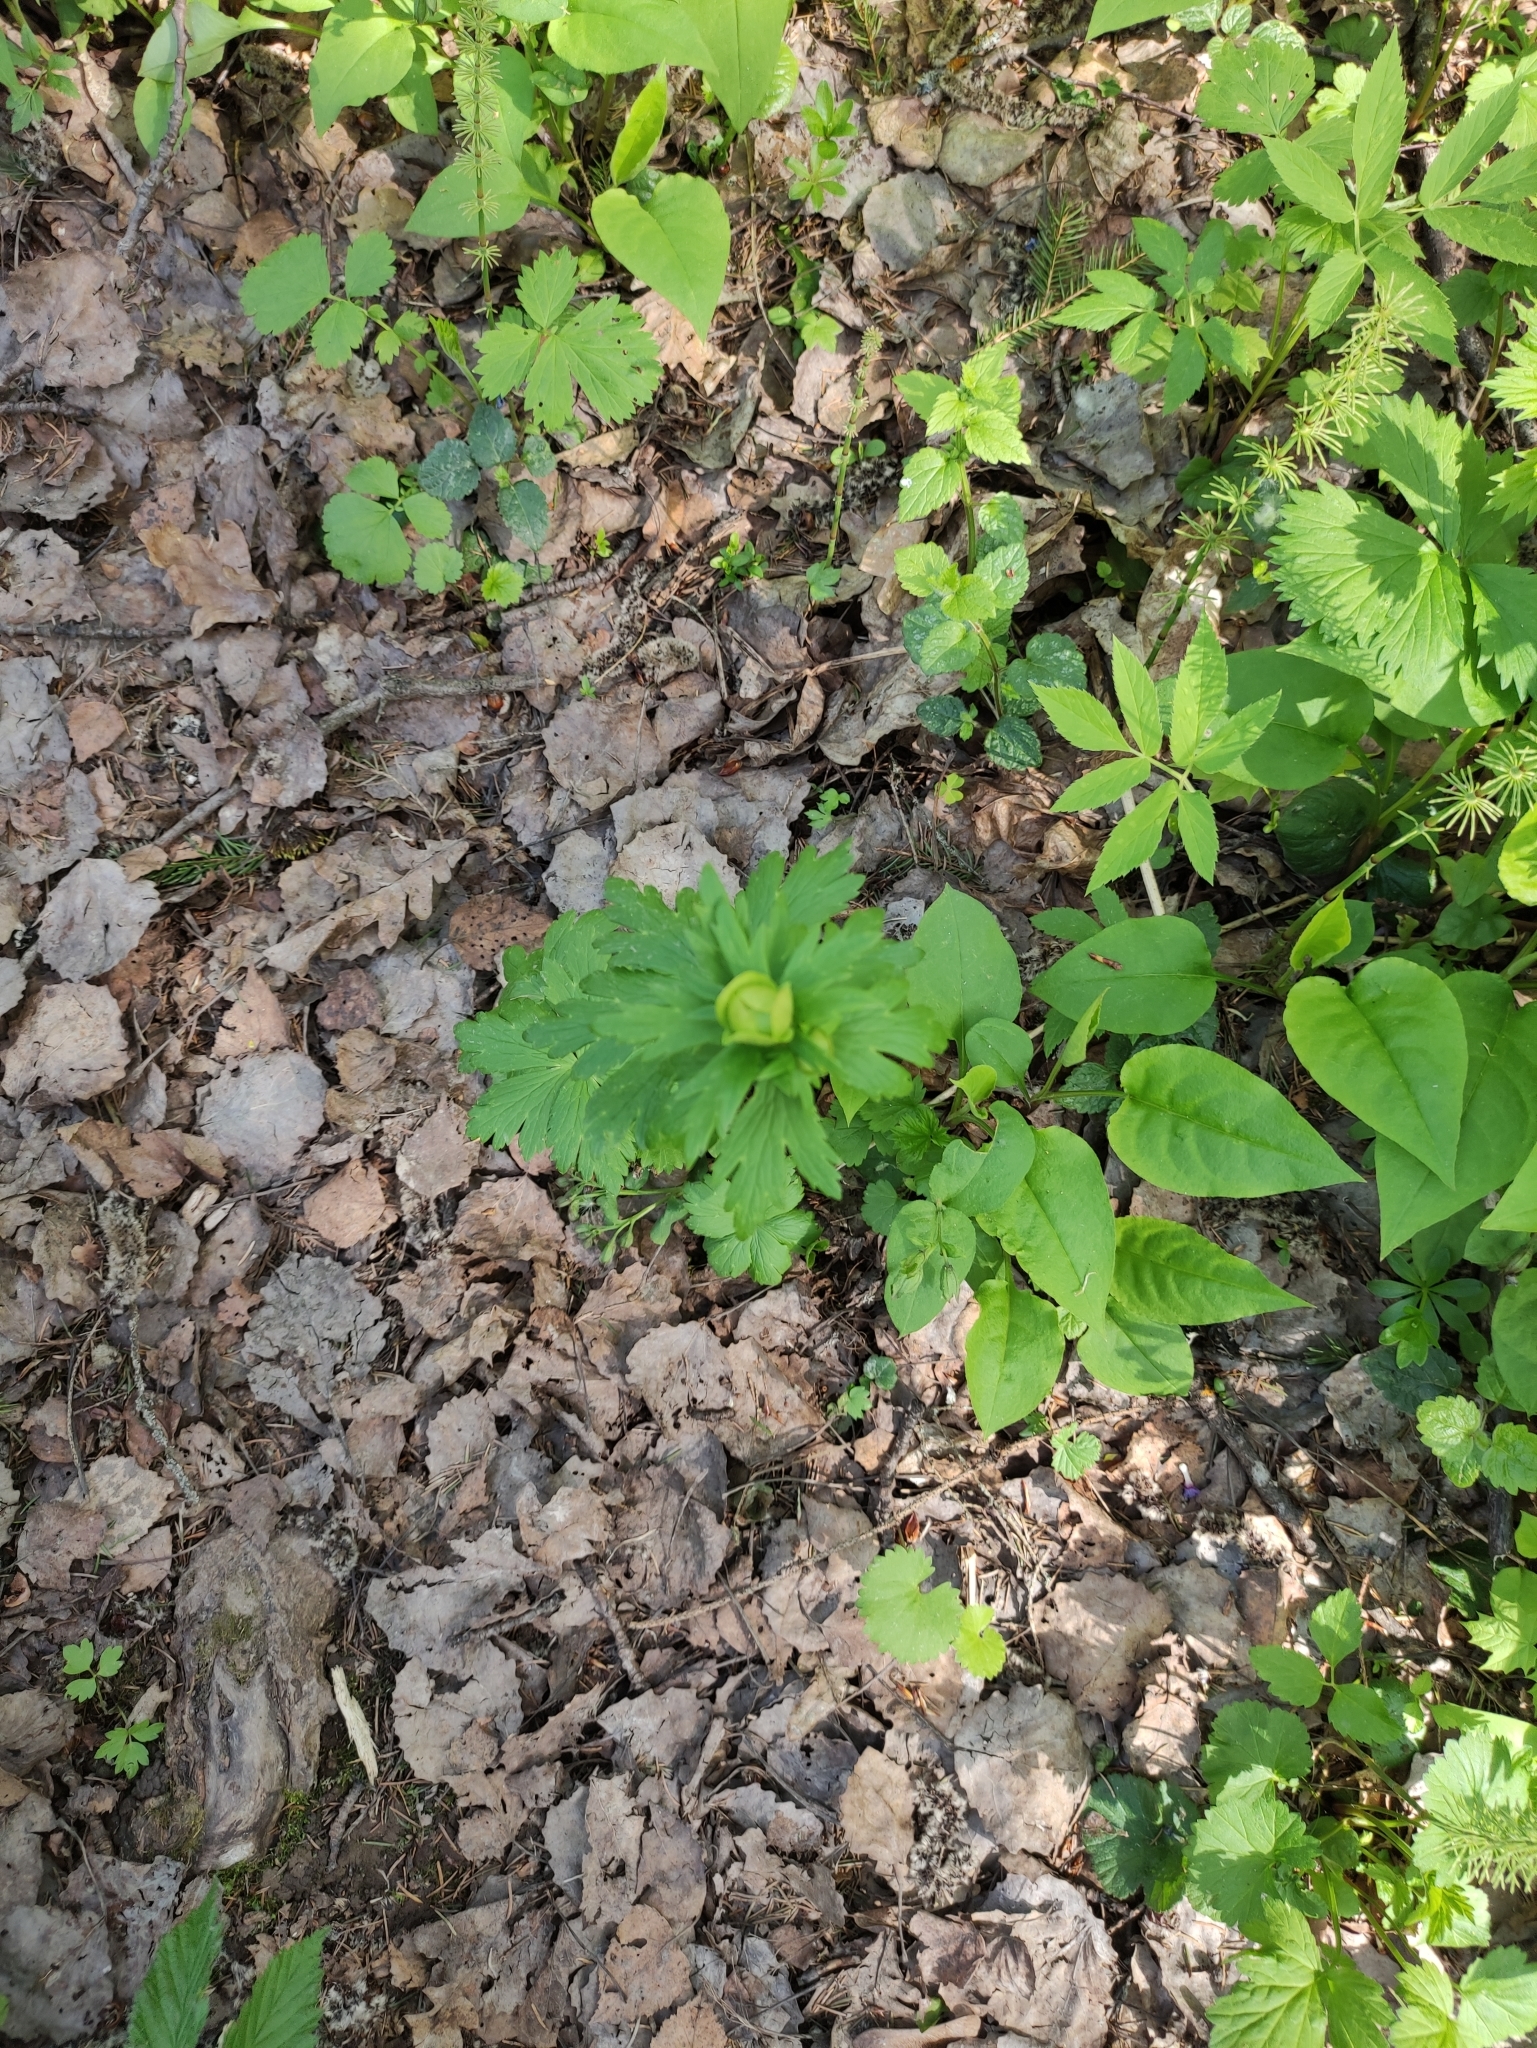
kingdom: Plantae
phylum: Tracheophyta
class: Magnoliopsida
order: Ranunculales
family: Ranunculaceae
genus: Trollius
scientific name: Trollius europaeus
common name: European globeflower
